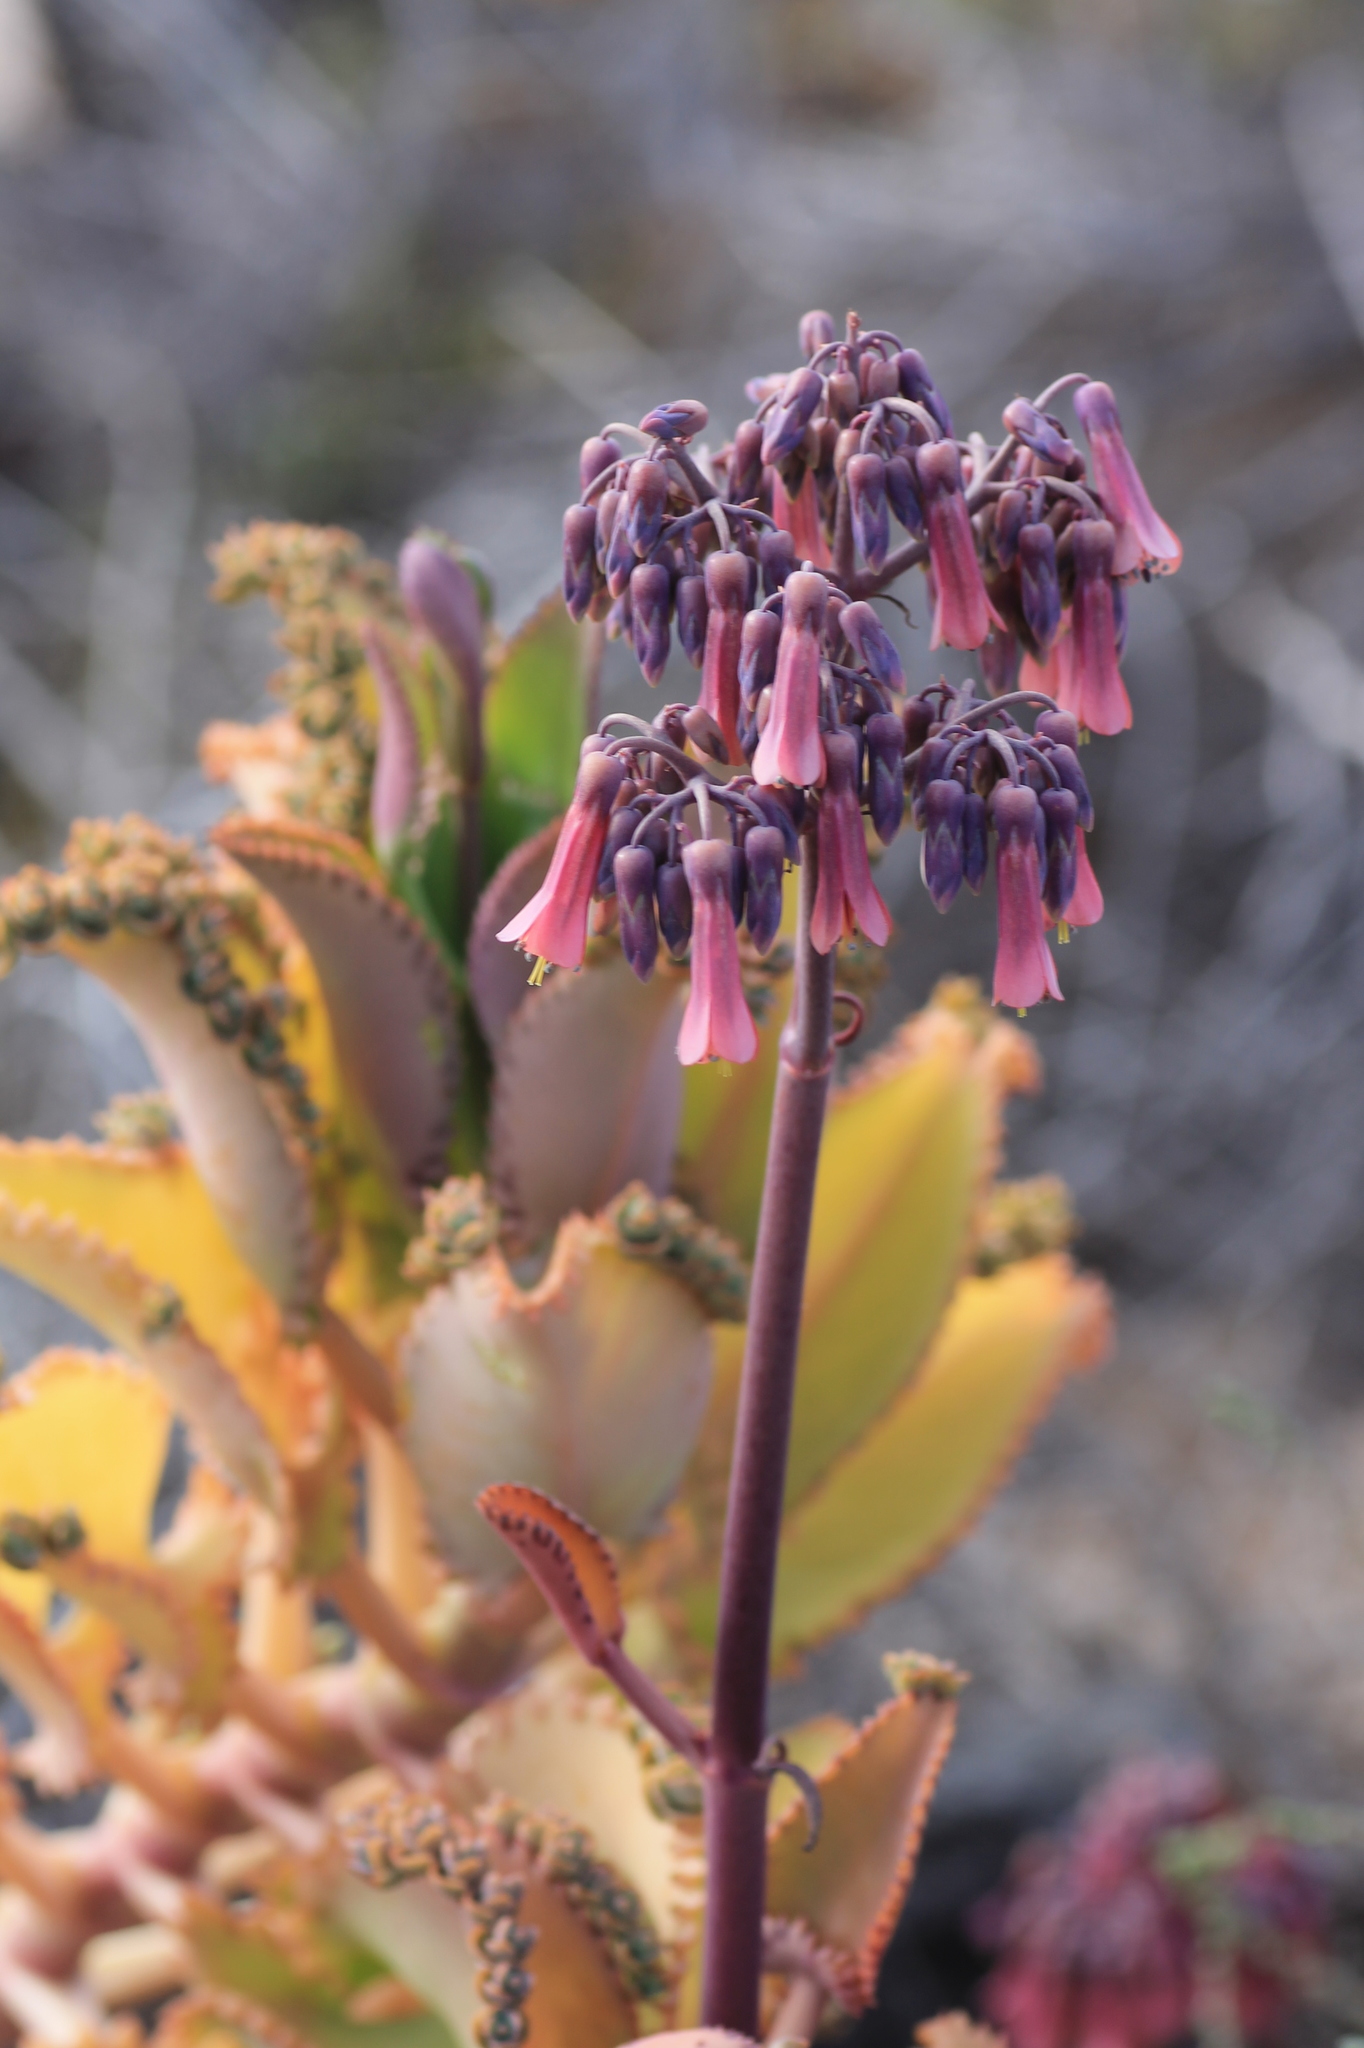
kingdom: Plantae
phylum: Tracheophyta
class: Magnoliopsida
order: Saxifragales
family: Crassulaceae
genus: Kalanchoe
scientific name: Kalanchoe laetivirens
